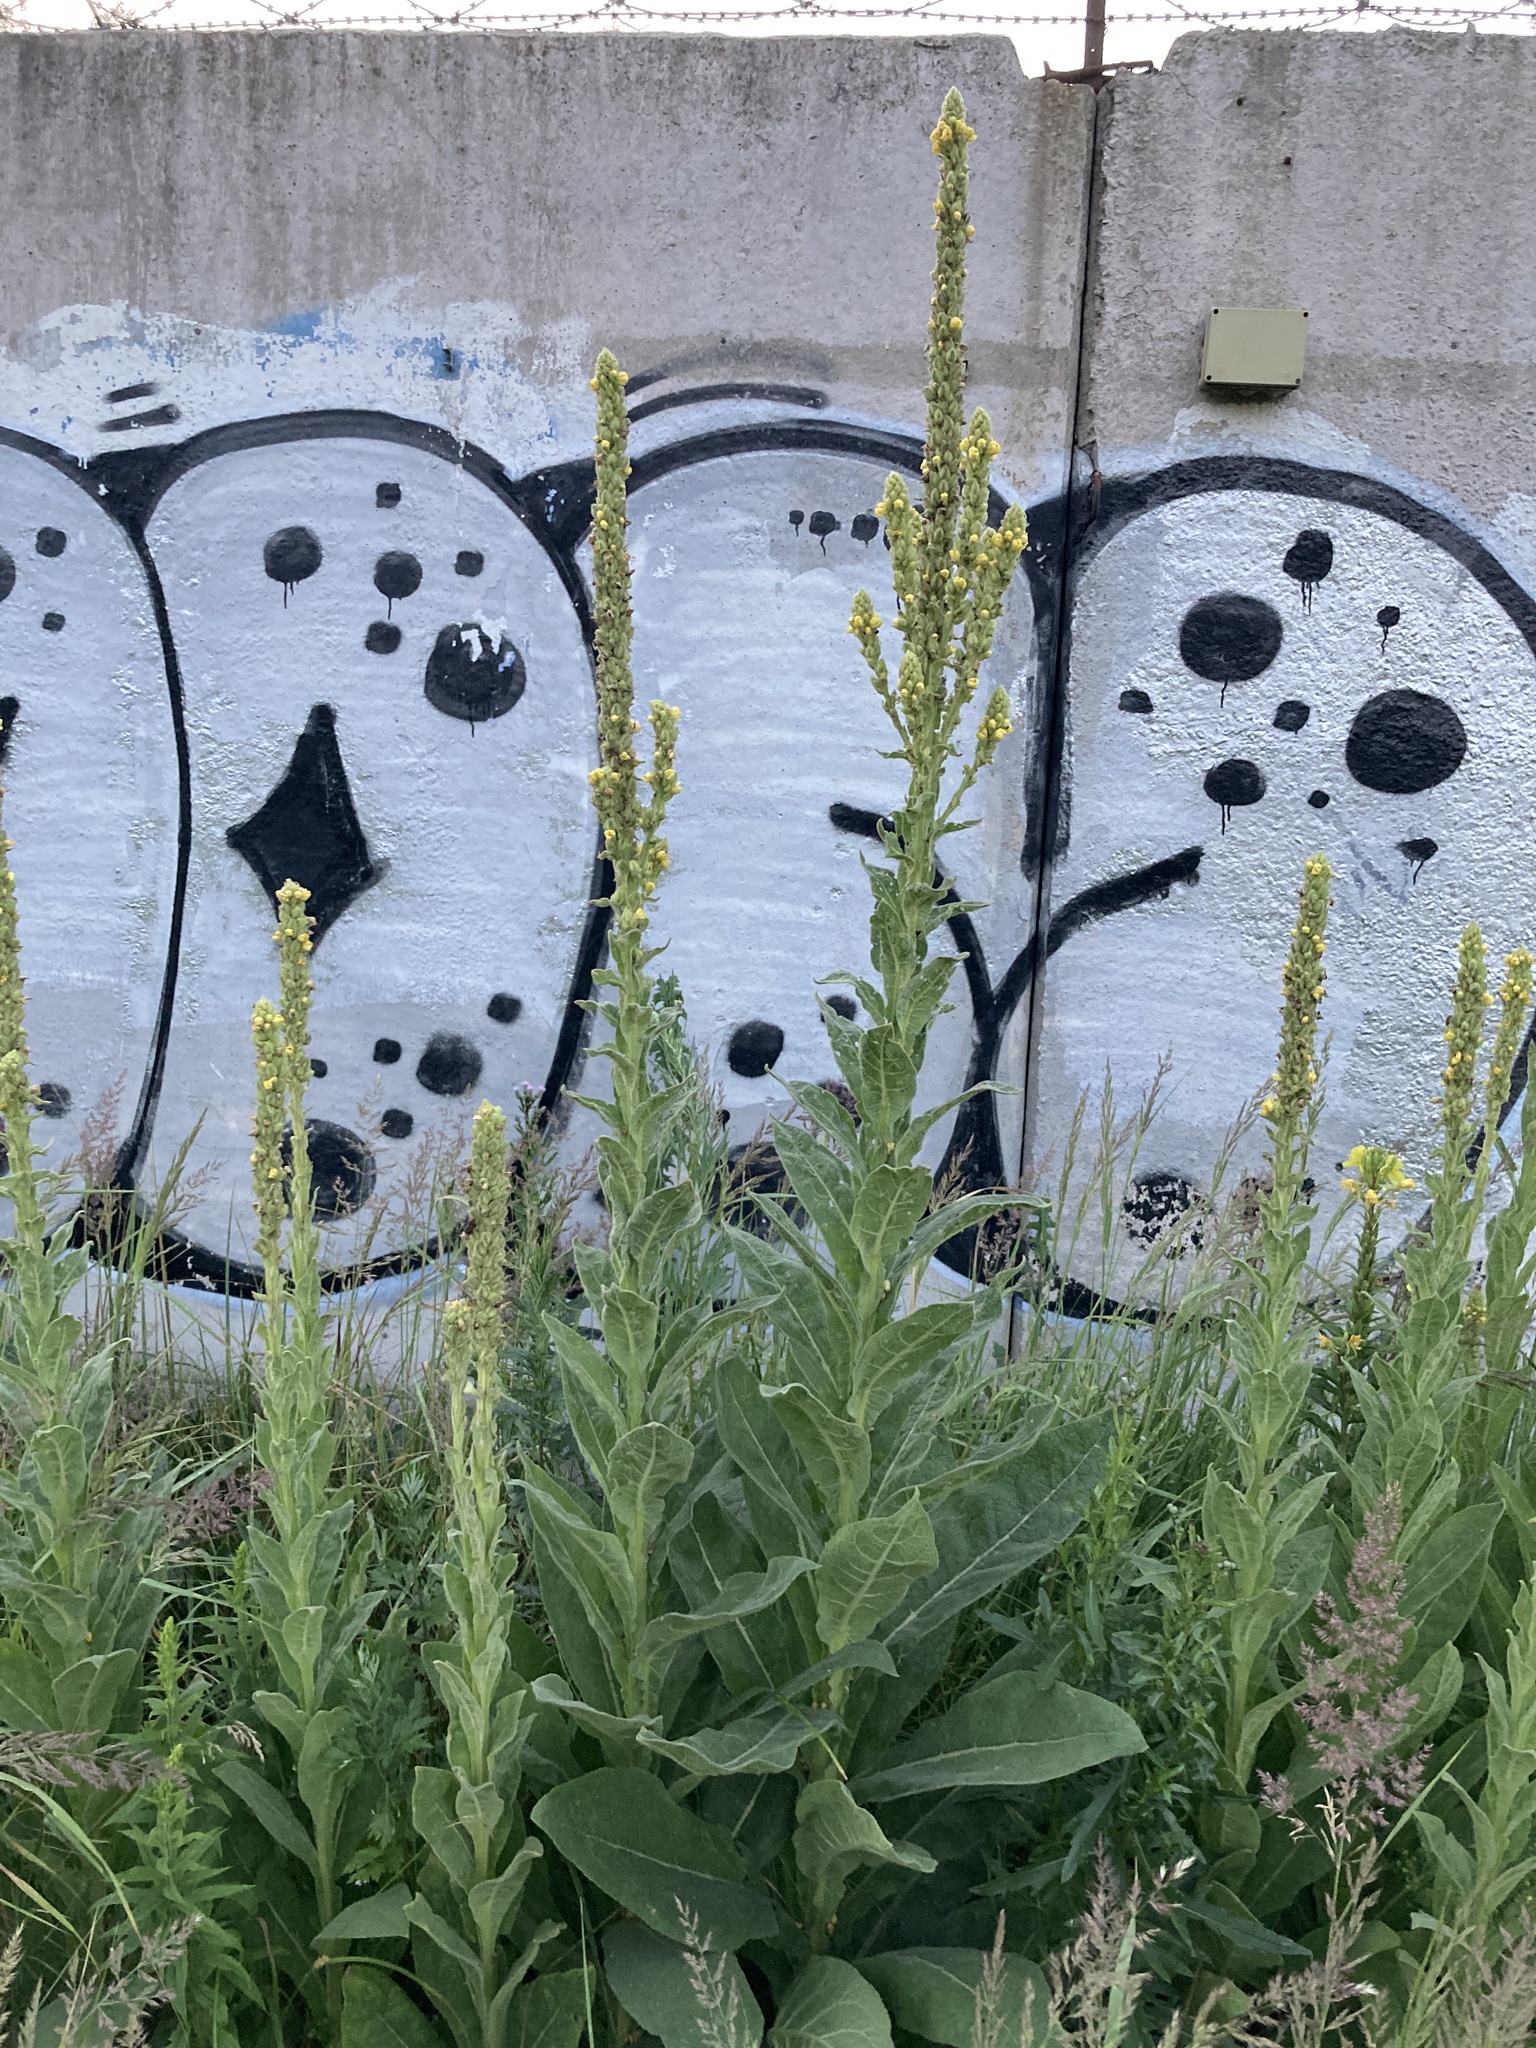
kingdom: Plantae
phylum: Tracheophyta
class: Magnoliopsida
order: Lamiales
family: Scrophulariaceae
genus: Verbascum
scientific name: Verbascum thapsus
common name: Common mullein
